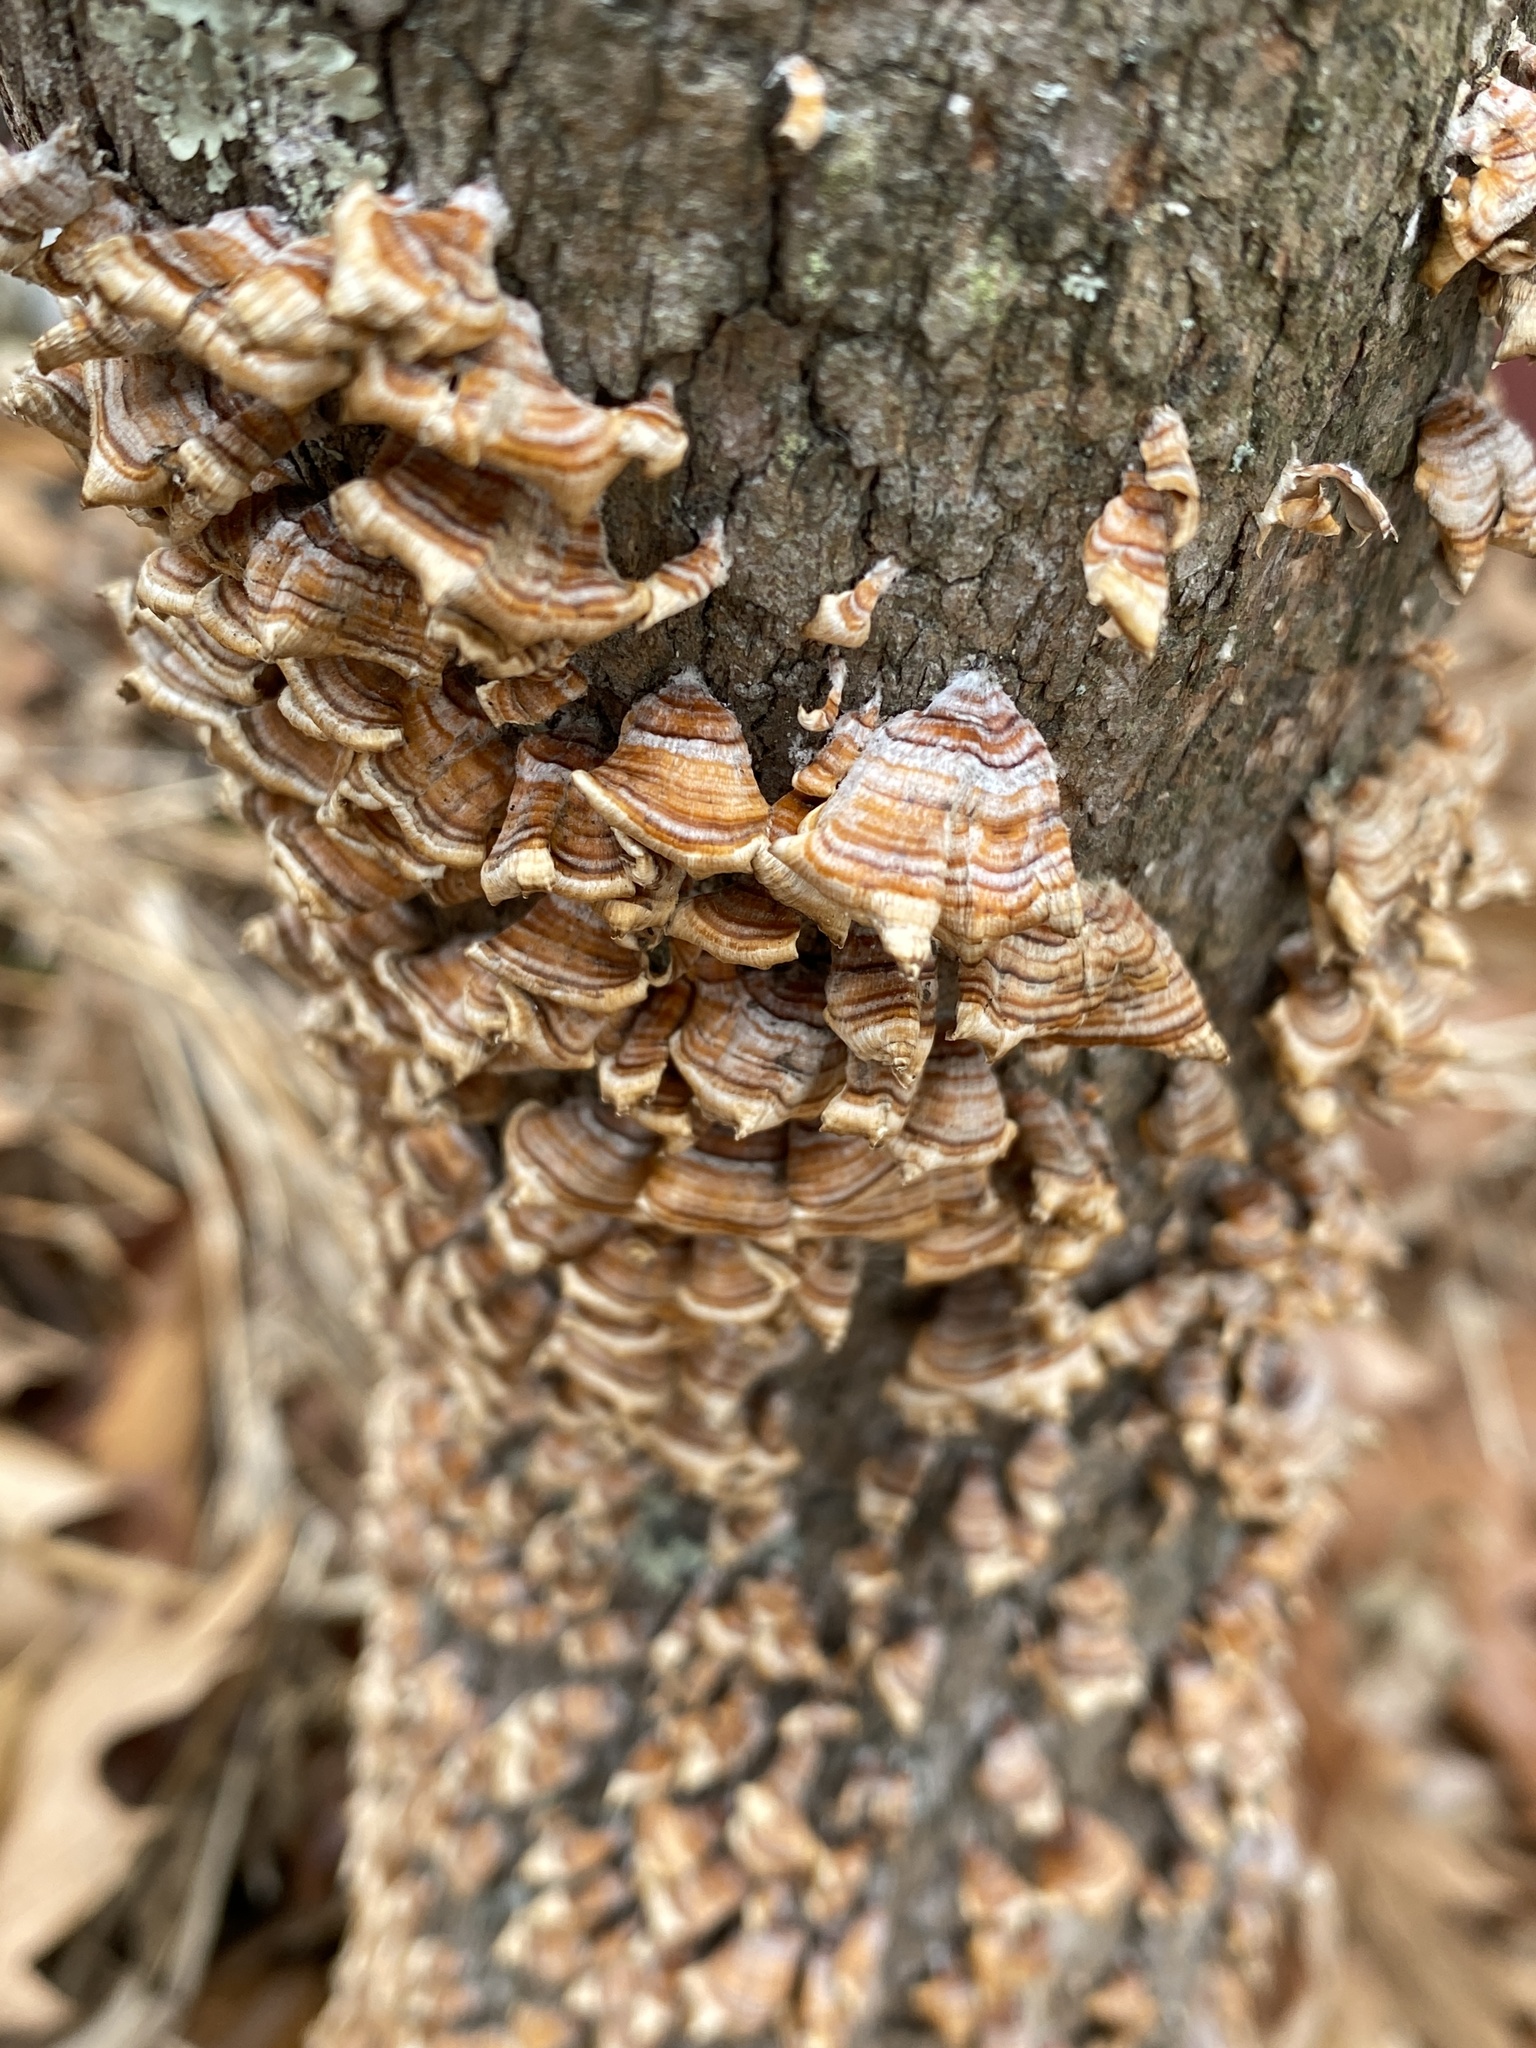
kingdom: Fungi
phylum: Basidiomycota
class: Agaricomycetes
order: Russulales
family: Stereaceae
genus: Stereum
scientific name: Stereum complicatum
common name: Crowded parchment
